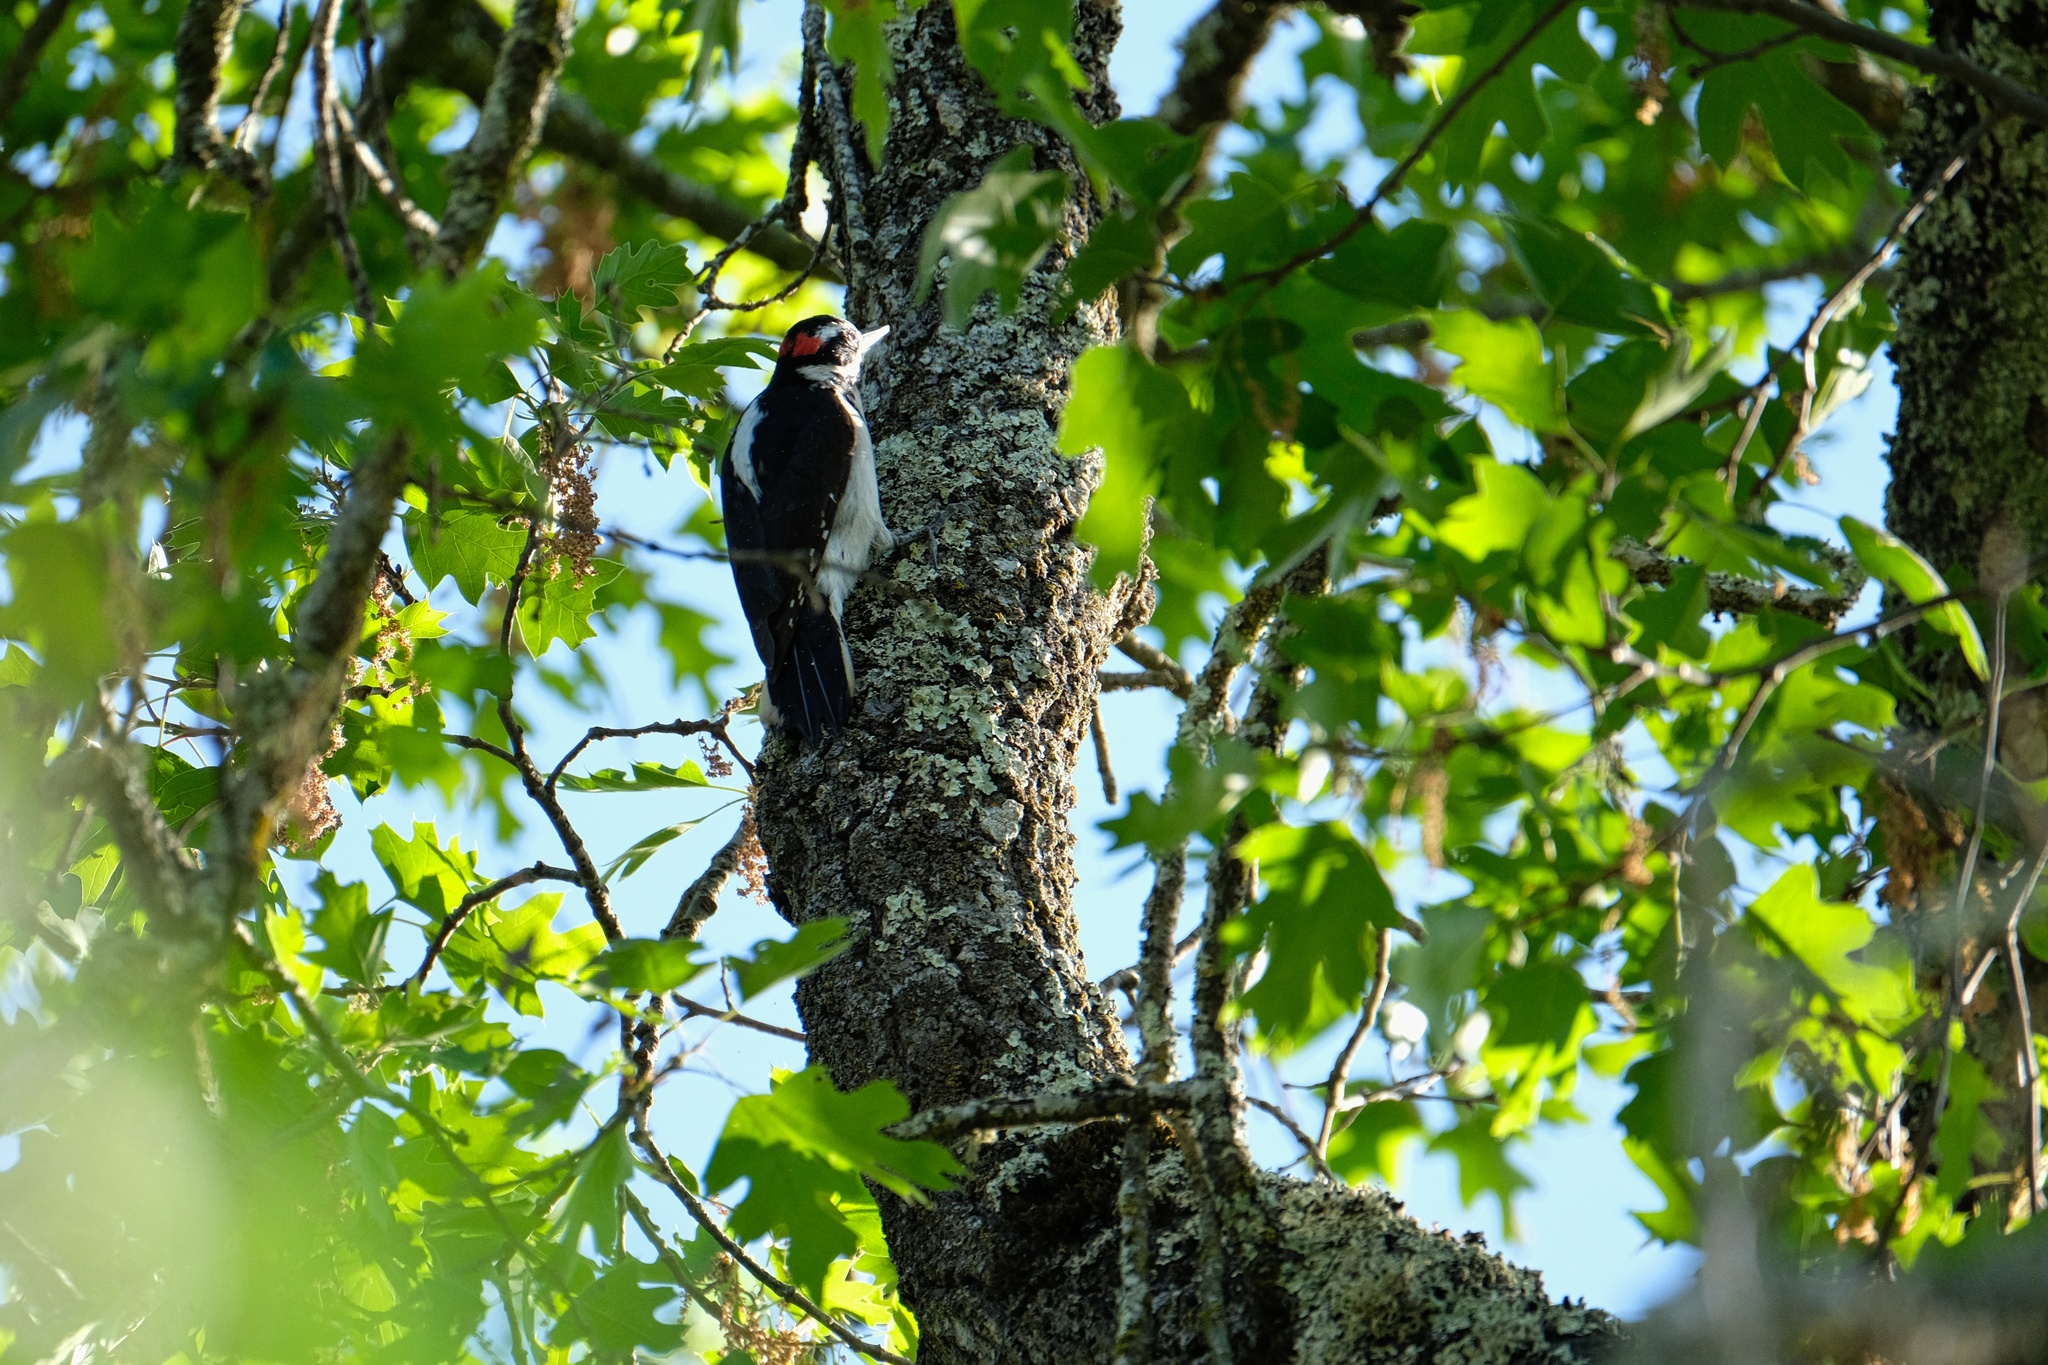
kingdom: Animalia
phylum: Chordata
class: Aves
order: Piciformes
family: Picidae
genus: Leuconotopicus
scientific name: Leuconotopicus villosus
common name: Hairy woodpecker
